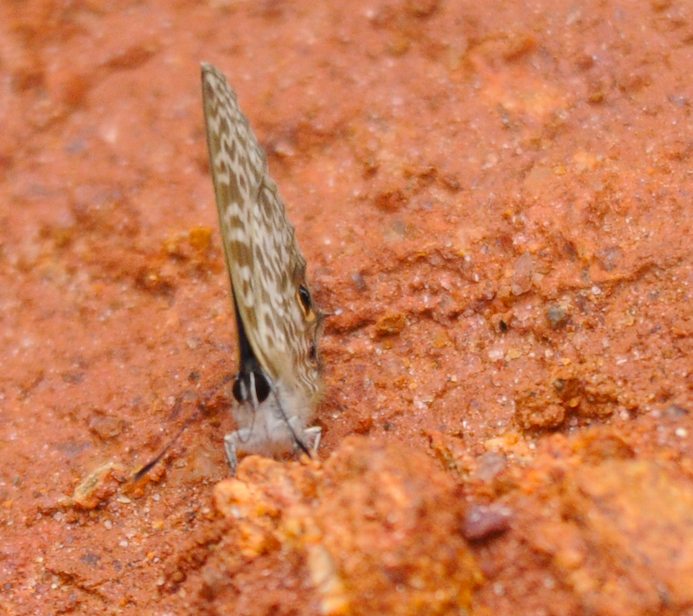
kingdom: Animalia
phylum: Arthropoda
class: Insecta
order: Lepidoptera
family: Lycaenidae
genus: Leptotes
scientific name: Leptotes rabenafer
